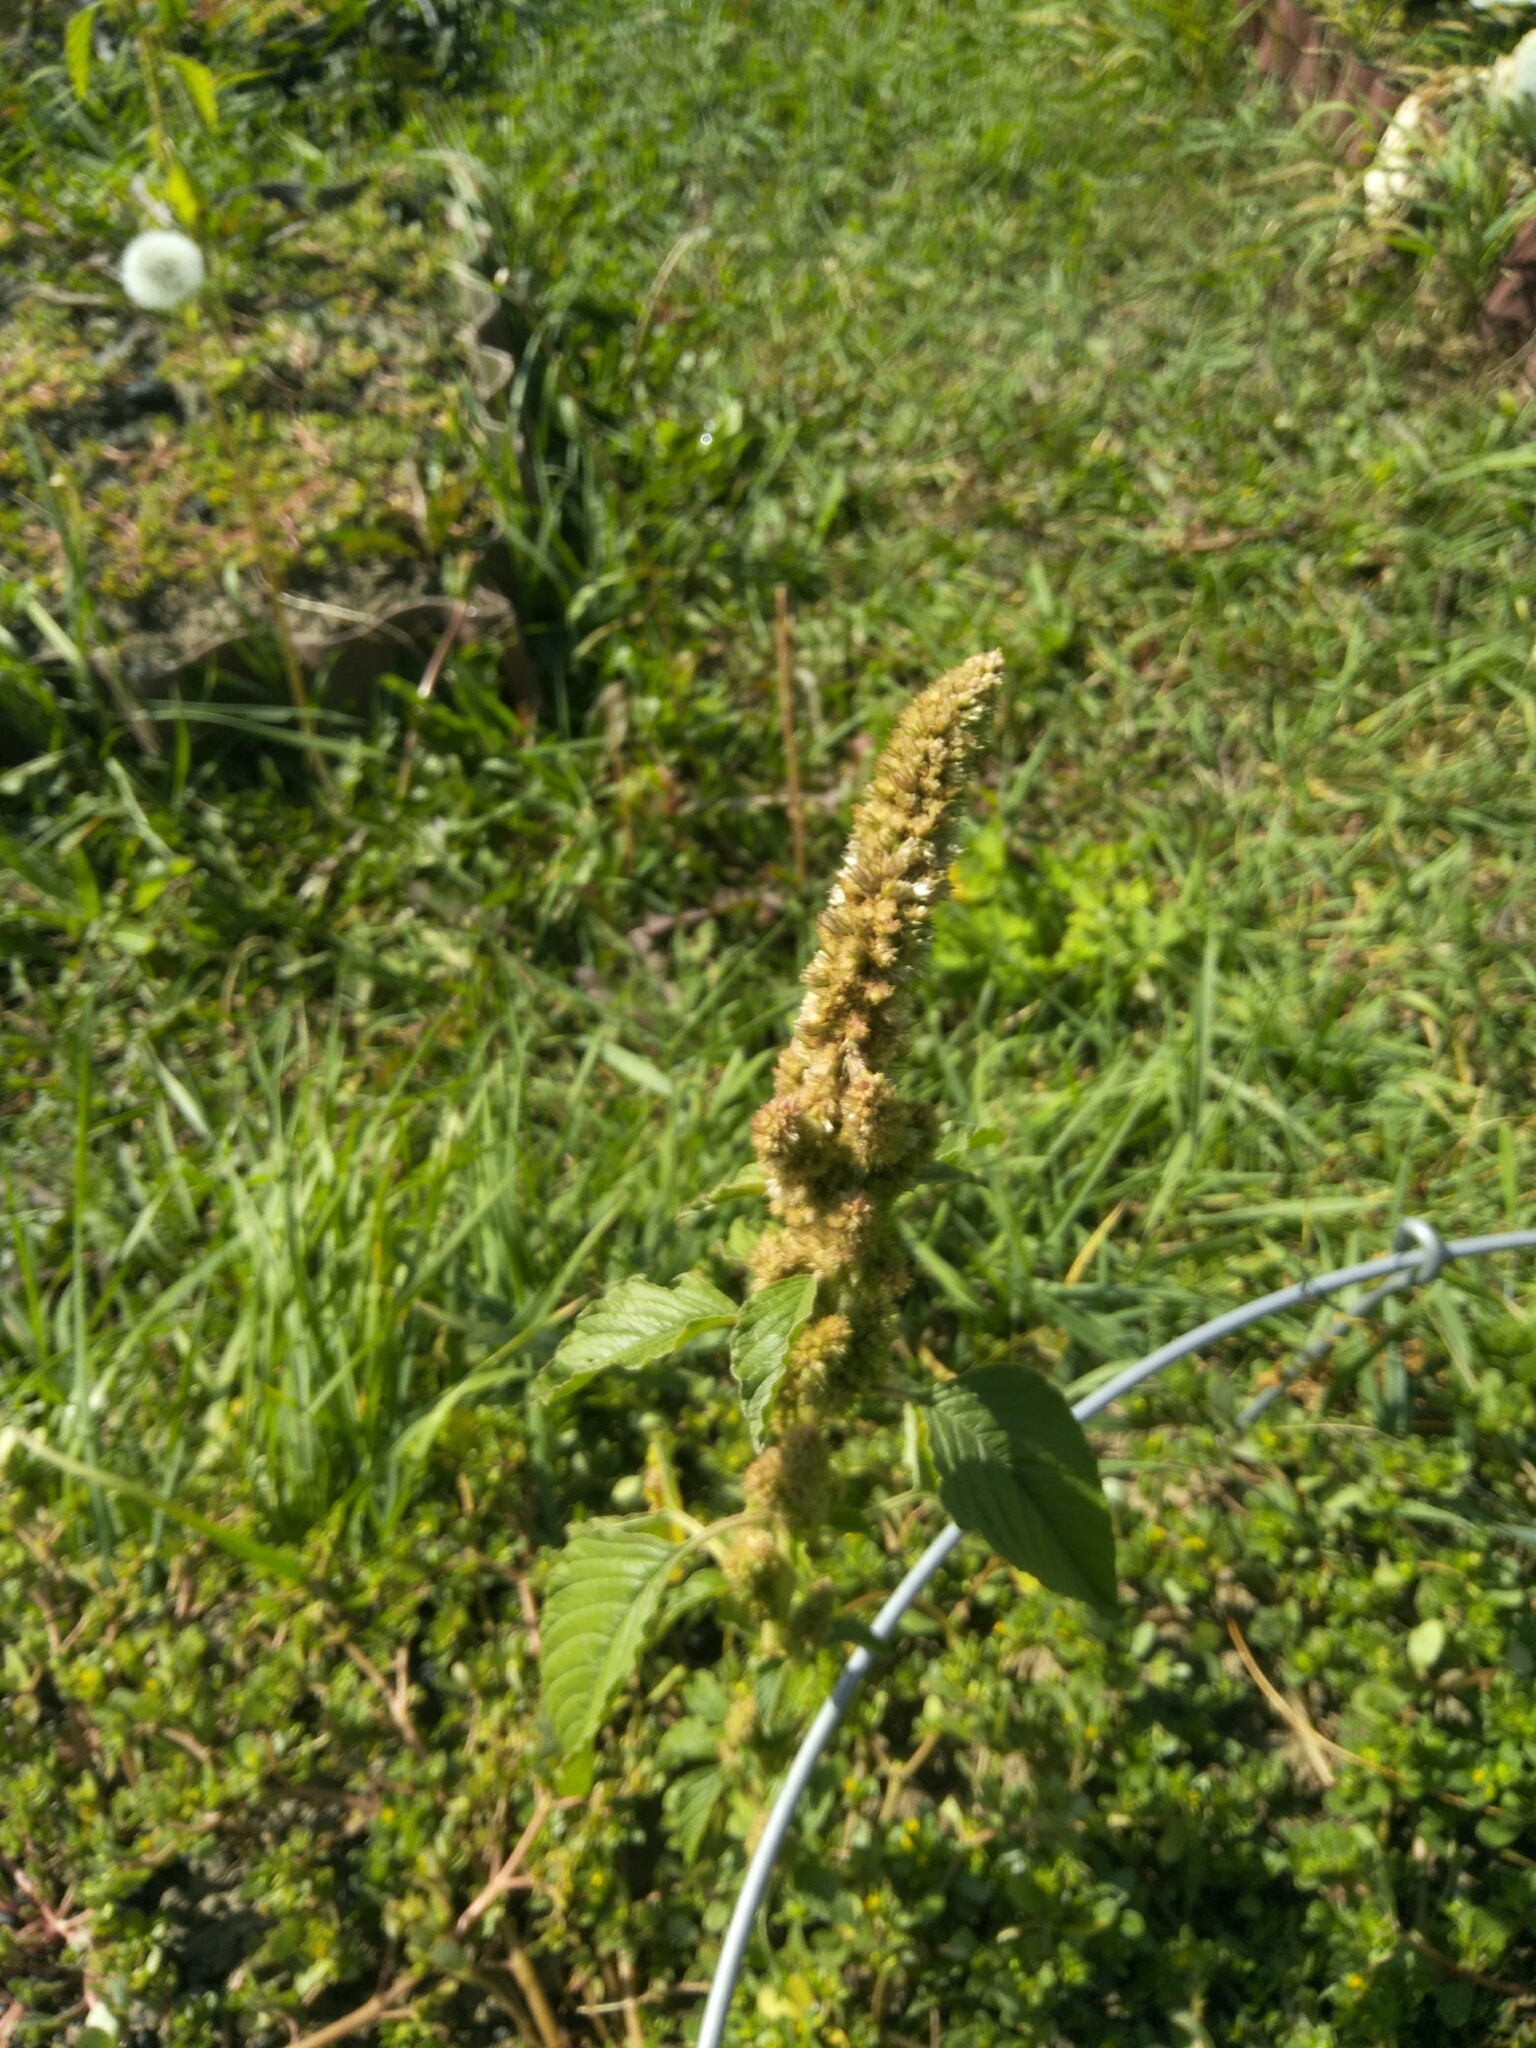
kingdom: Plantae
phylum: Tracheophyta
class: Magnoliopsida
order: Caryophyllales
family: Amaranthaceae
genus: Amaranthus
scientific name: Amaranthus retroflexus
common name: Redroot amaranth
